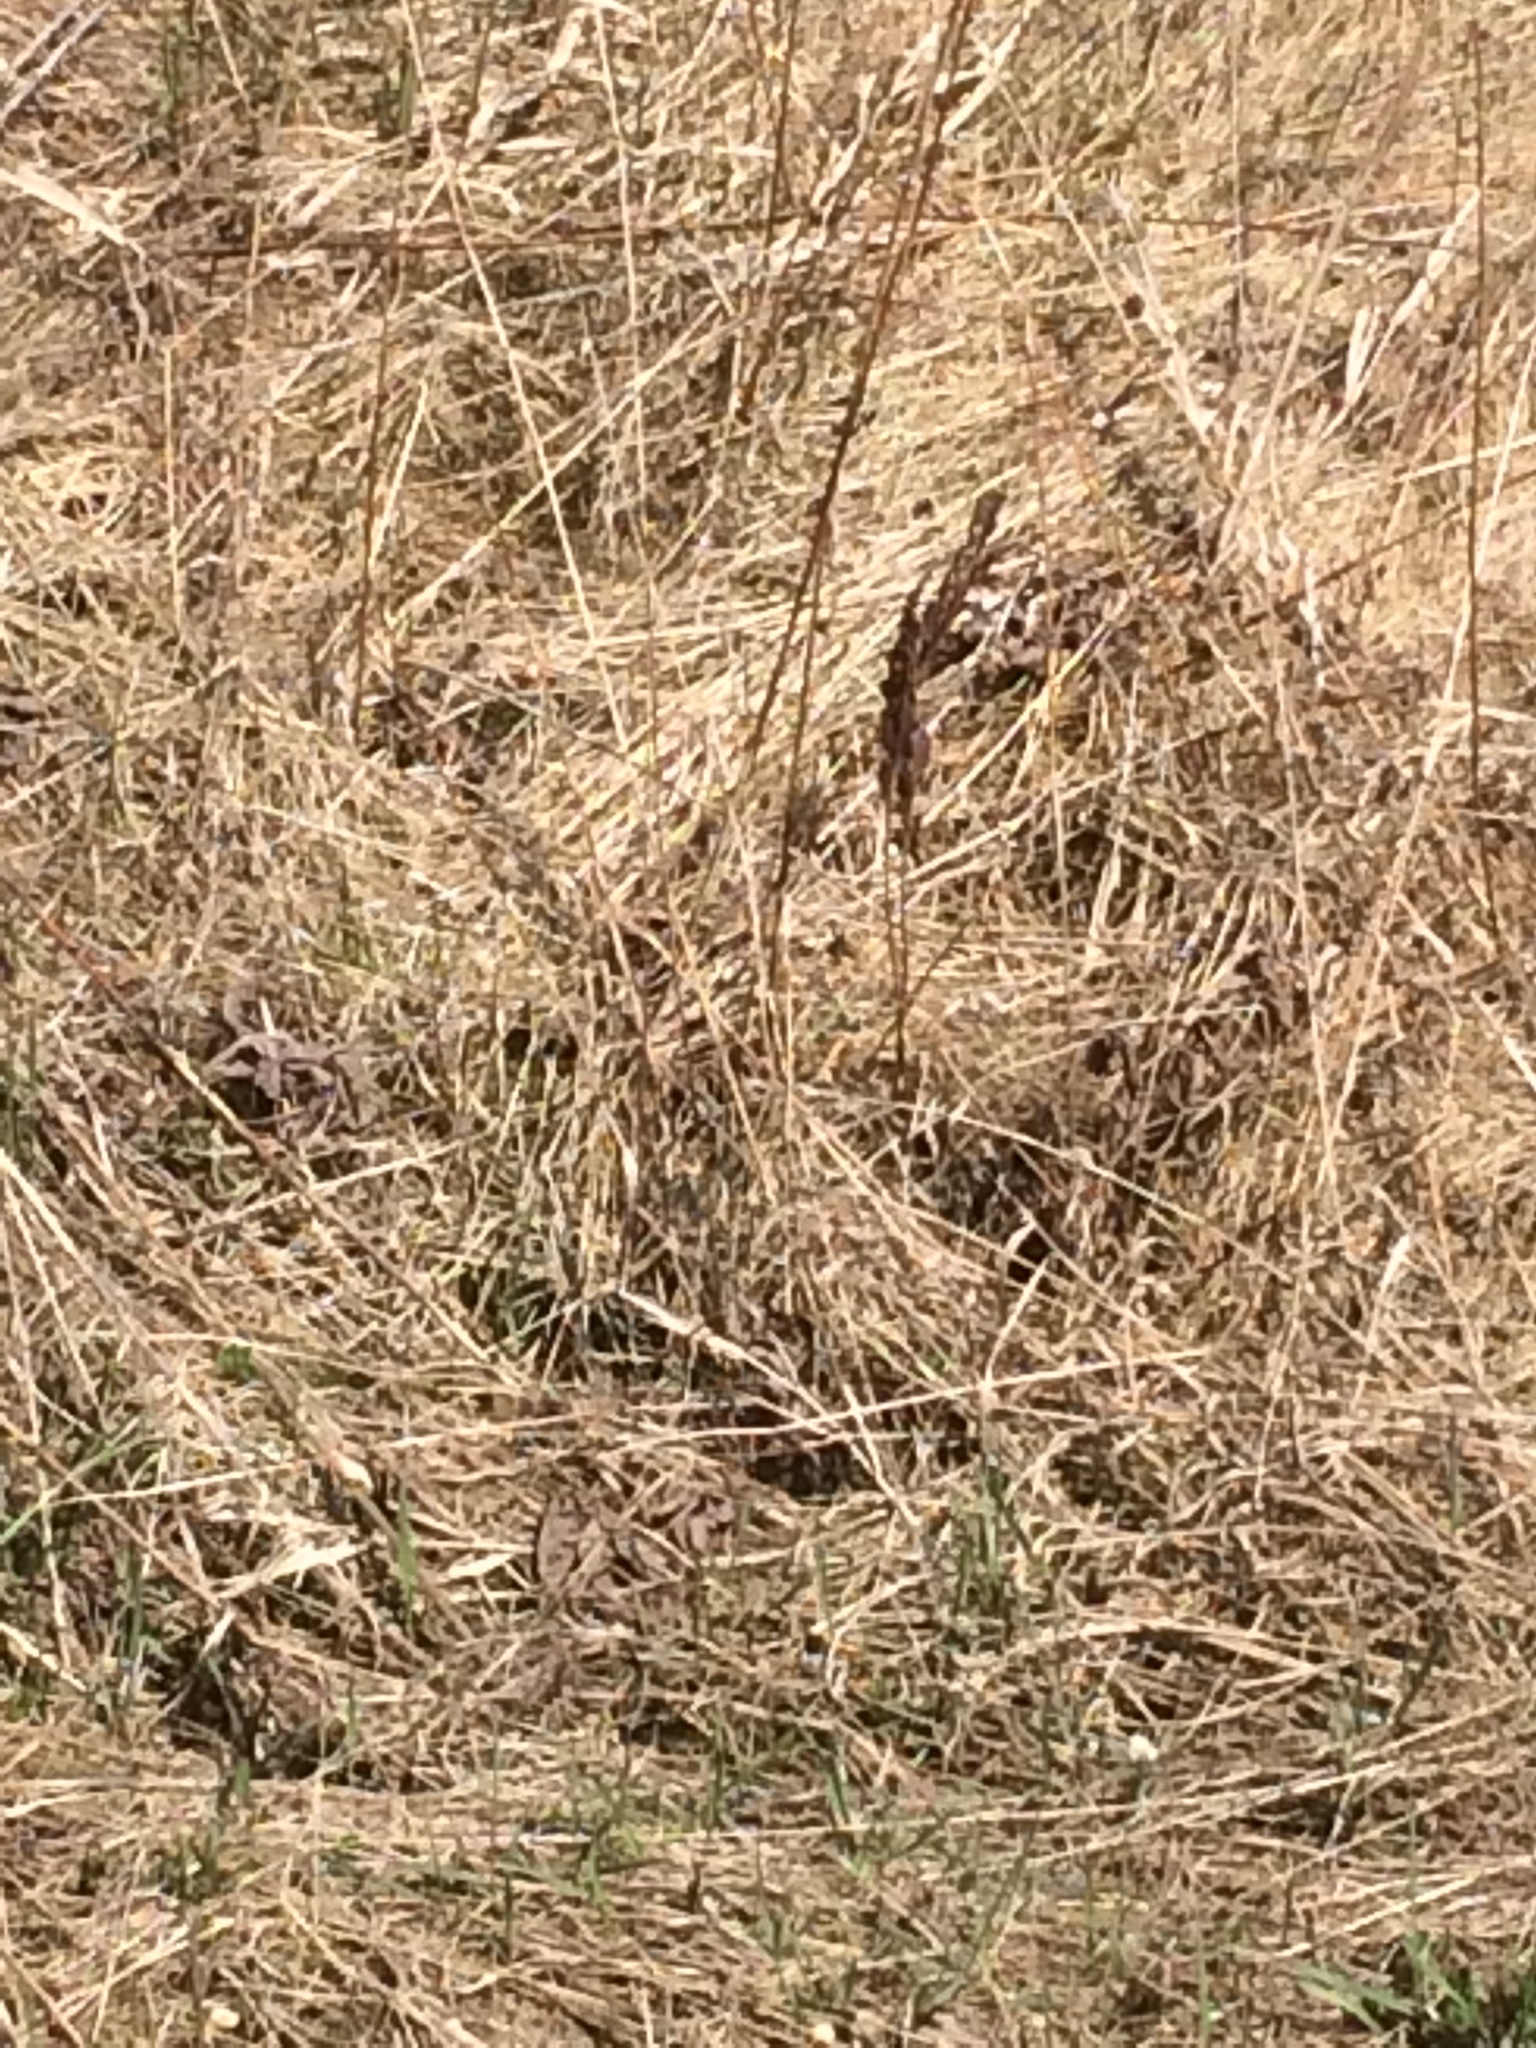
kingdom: Plantae
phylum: Tracheophyta
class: Polypodiopsida
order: Polypodiales
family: Onocleaceae
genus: Onoclea
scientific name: Onoclea sensibilis
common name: Sensitive fern
